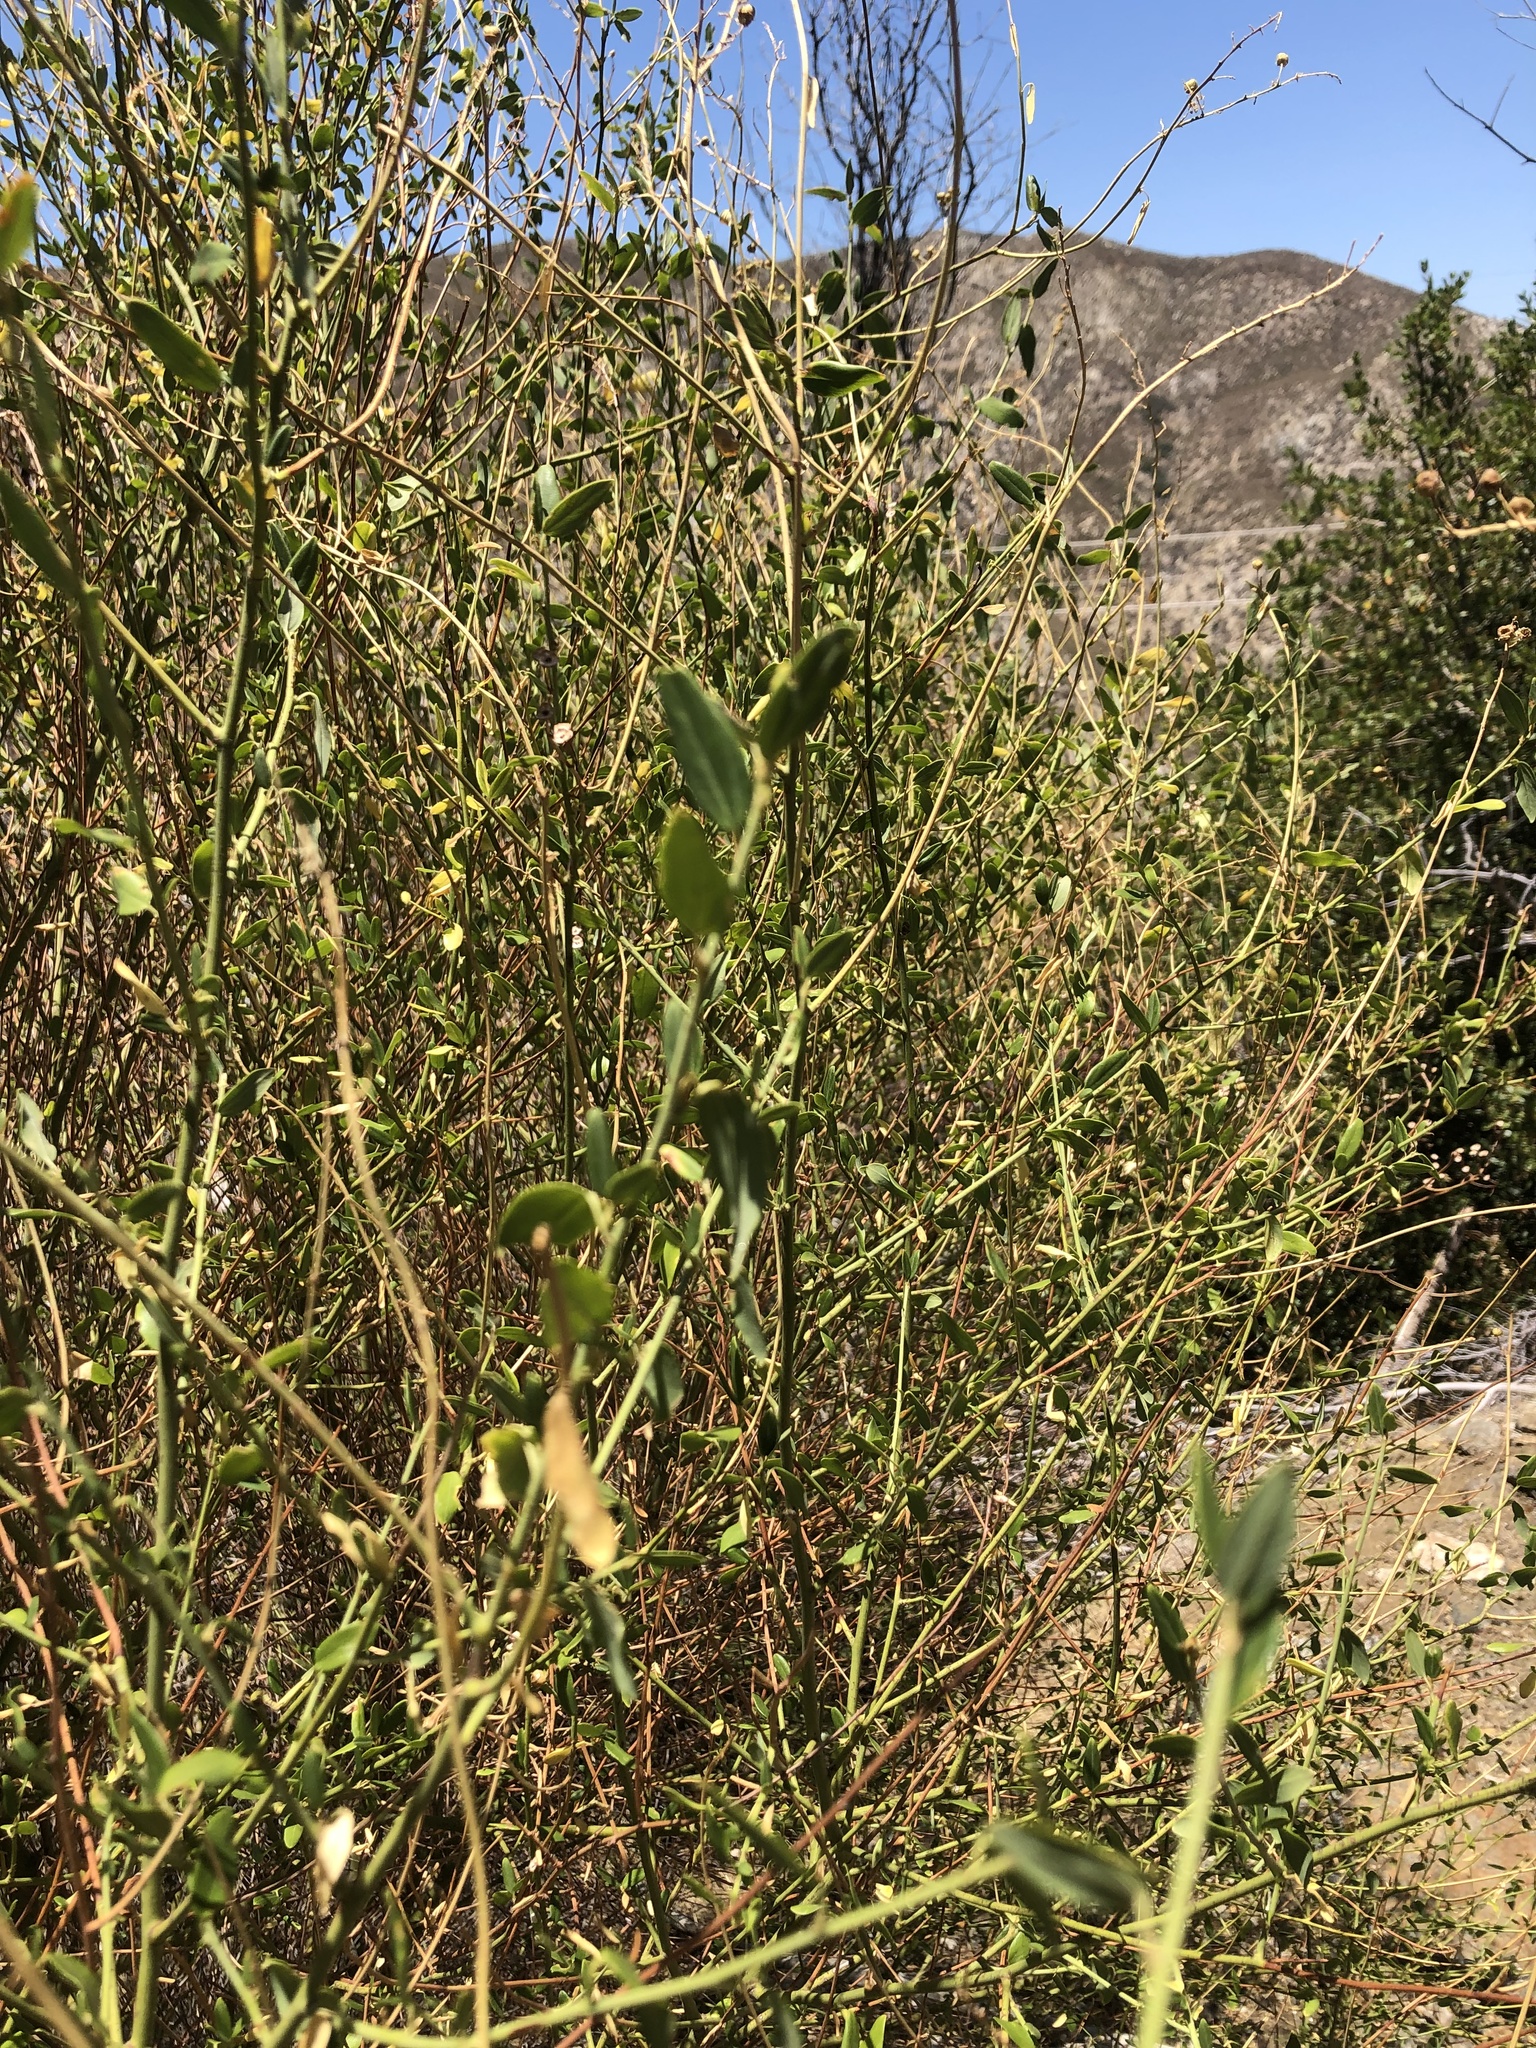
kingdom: Plantae
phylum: Tracheophyta
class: Magnoliopsida
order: Rosales
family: Rhamnaceae
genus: Ceanothus
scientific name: Ceanothus palmeri
